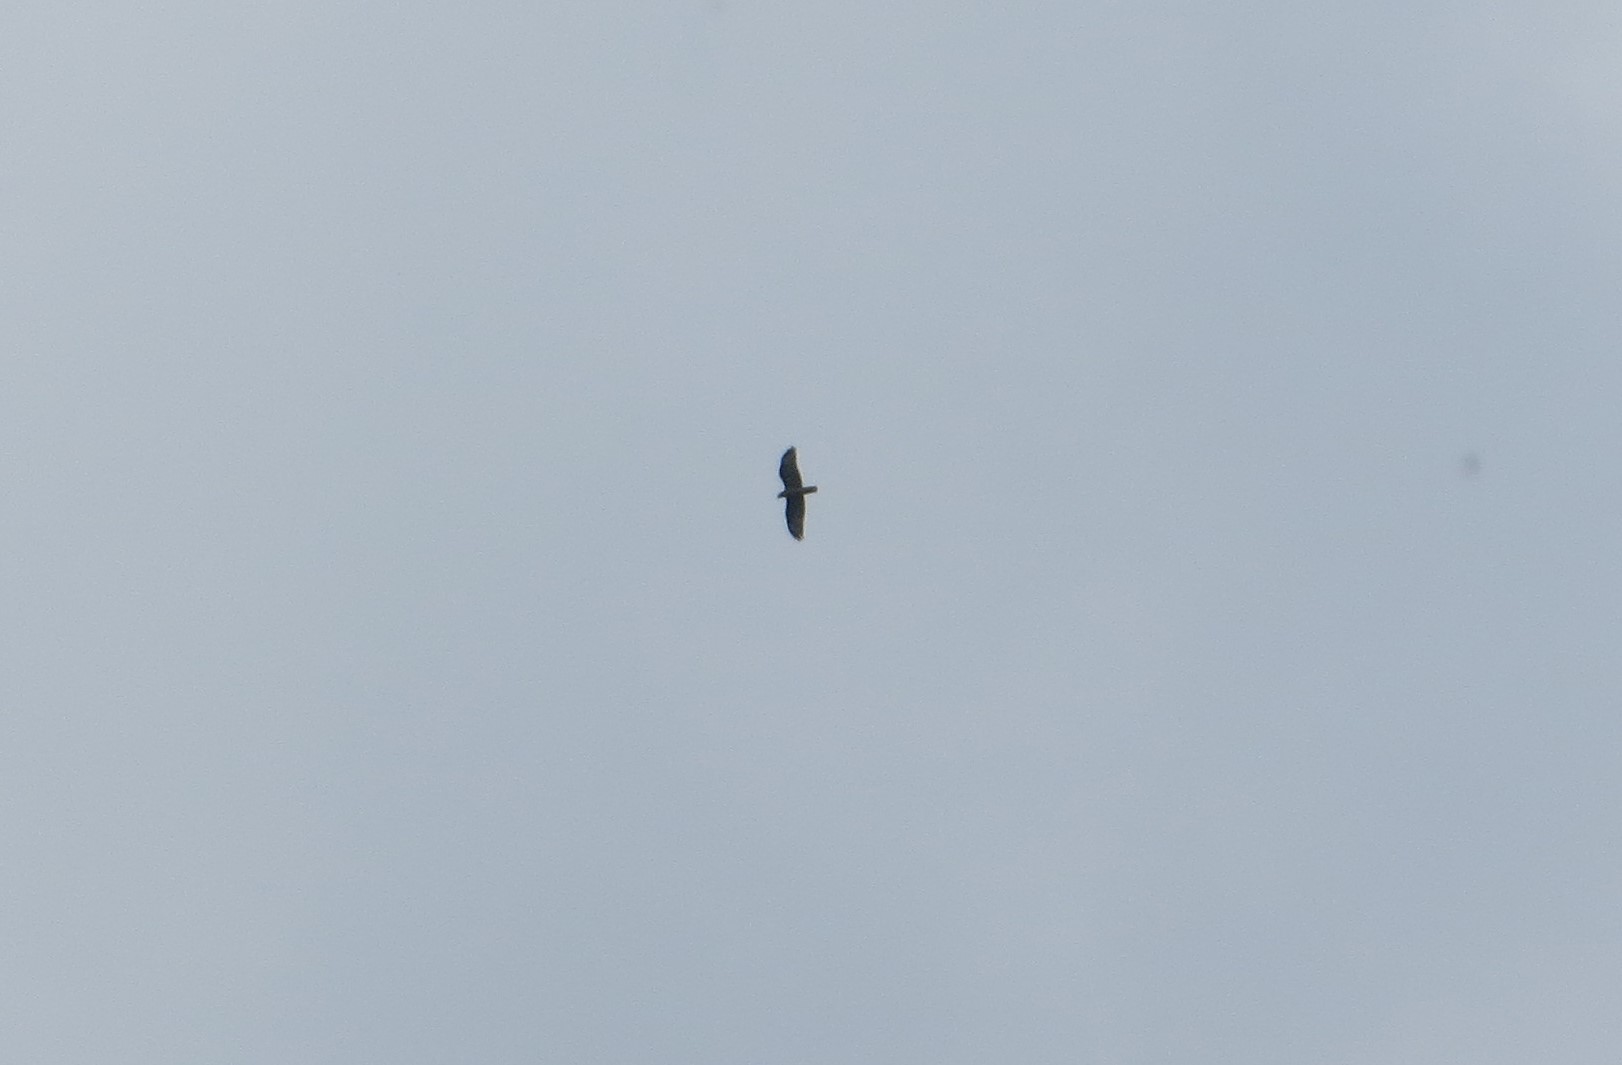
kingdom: Animalia
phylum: Chordata
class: Aves
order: Accipitriformes
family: Accipitridae
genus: Pernis
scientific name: Pernis apivorus
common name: European honey buzzard
